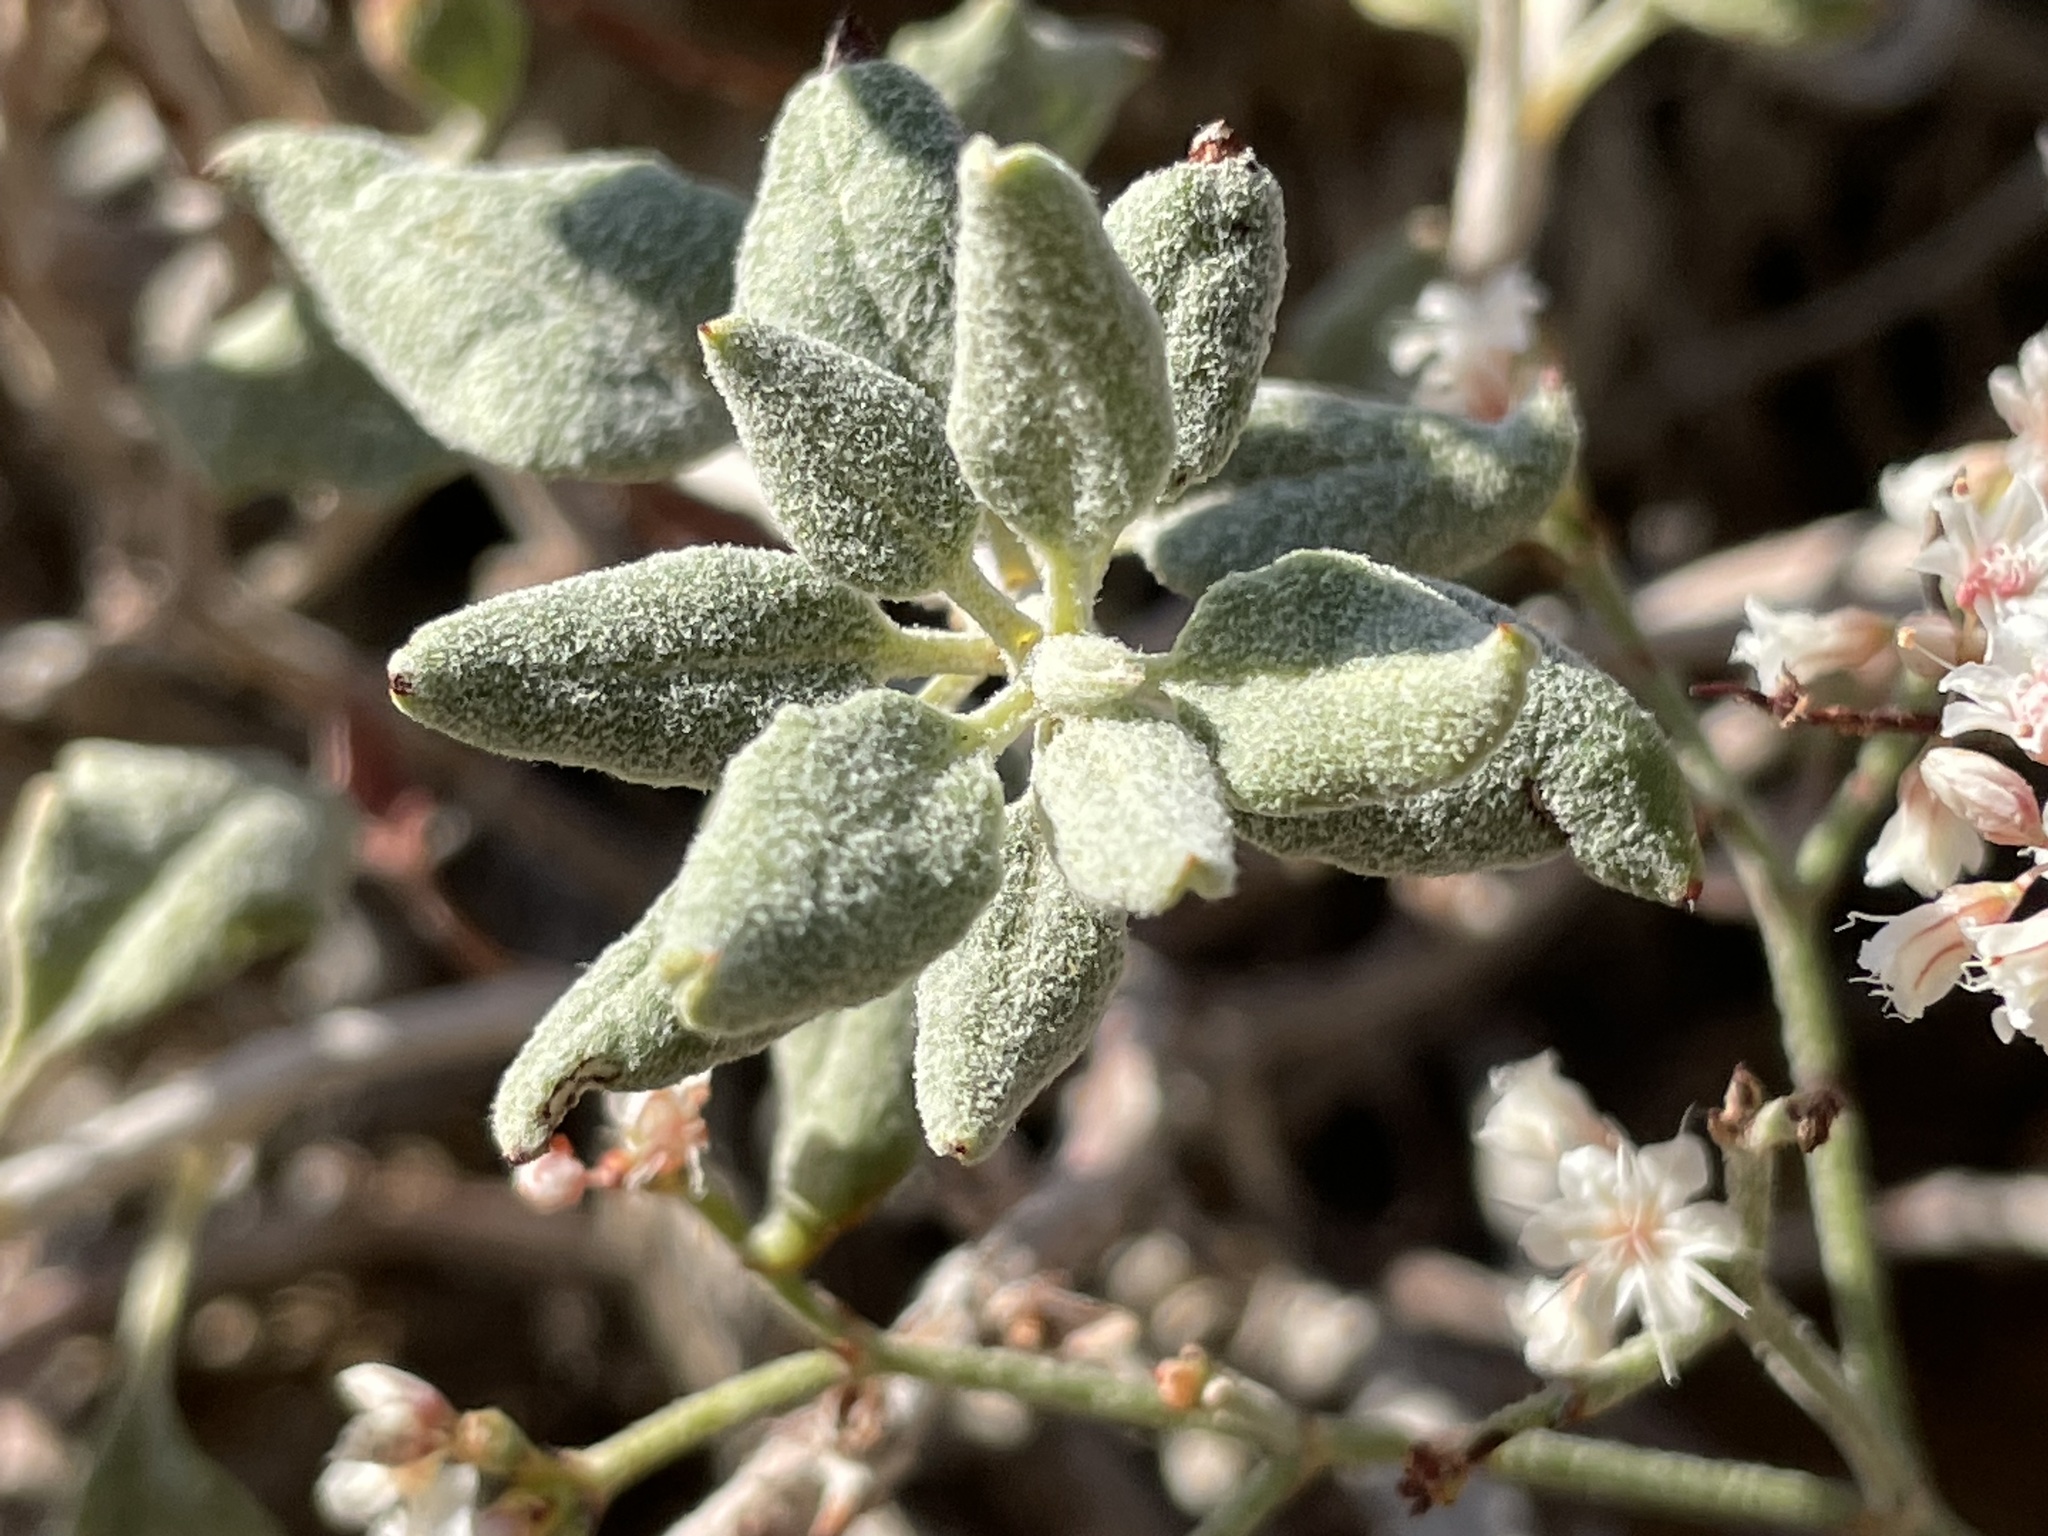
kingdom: Plantae
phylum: Tracheophyta
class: Magnoliopsida
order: Caryophyllales
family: Polygonaceae
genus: Eriogonum
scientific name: Eriogonum corymbosum
